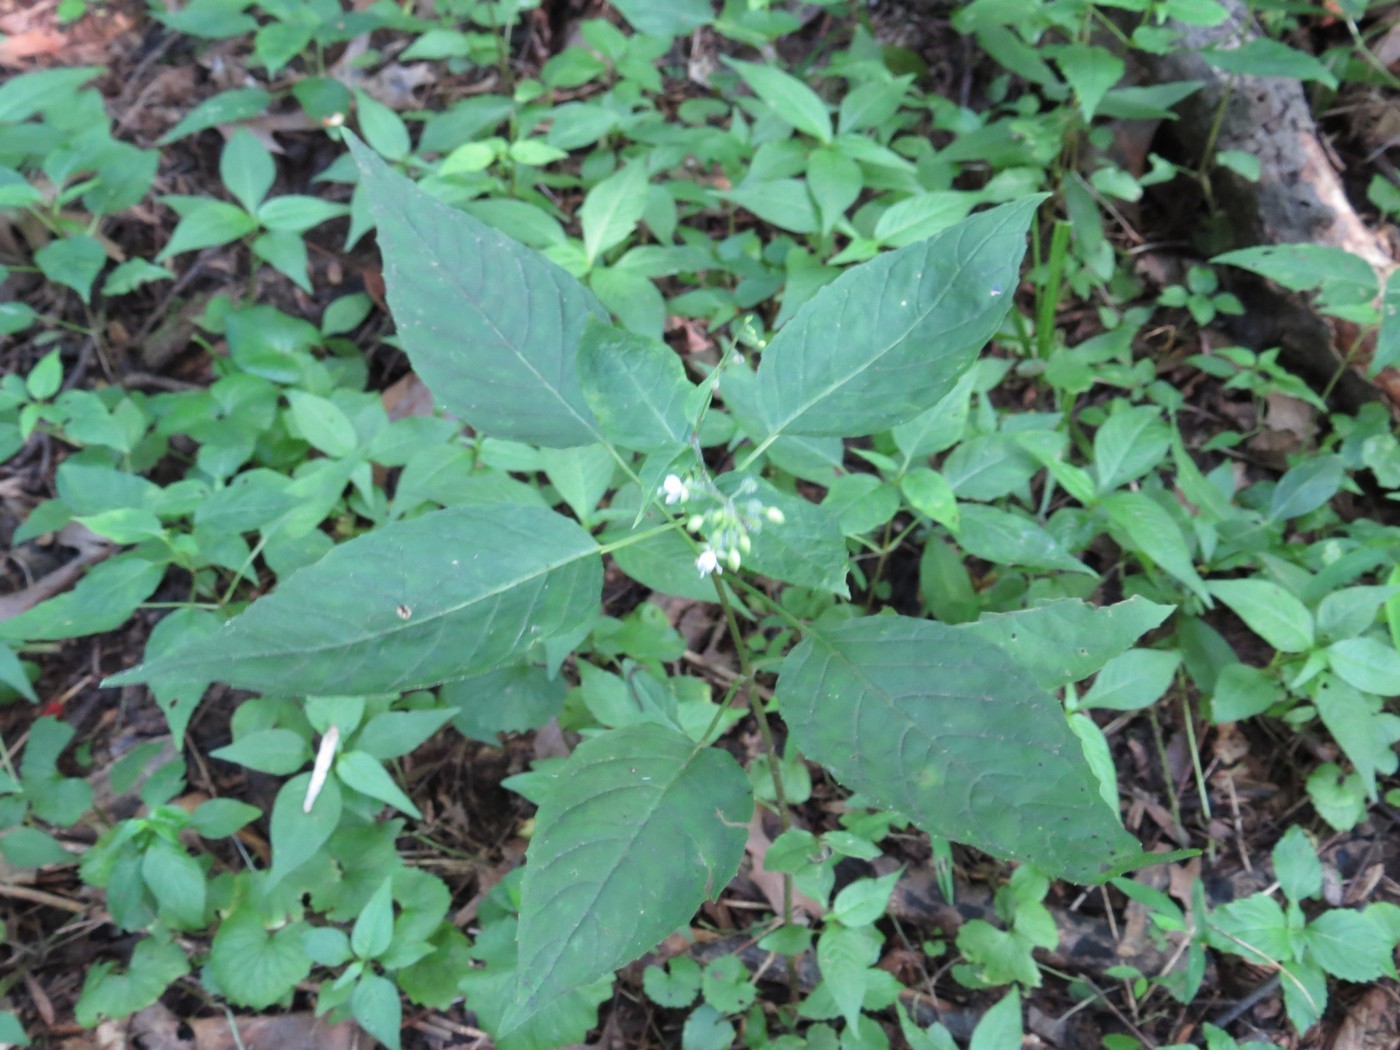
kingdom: Plantae
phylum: Tracheophyta
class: Magnoliopsida
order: Myrtales
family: Onagraceae
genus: Circaea
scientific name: Circaea canadensis
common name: Broad-leaved enchanter's nightshade
